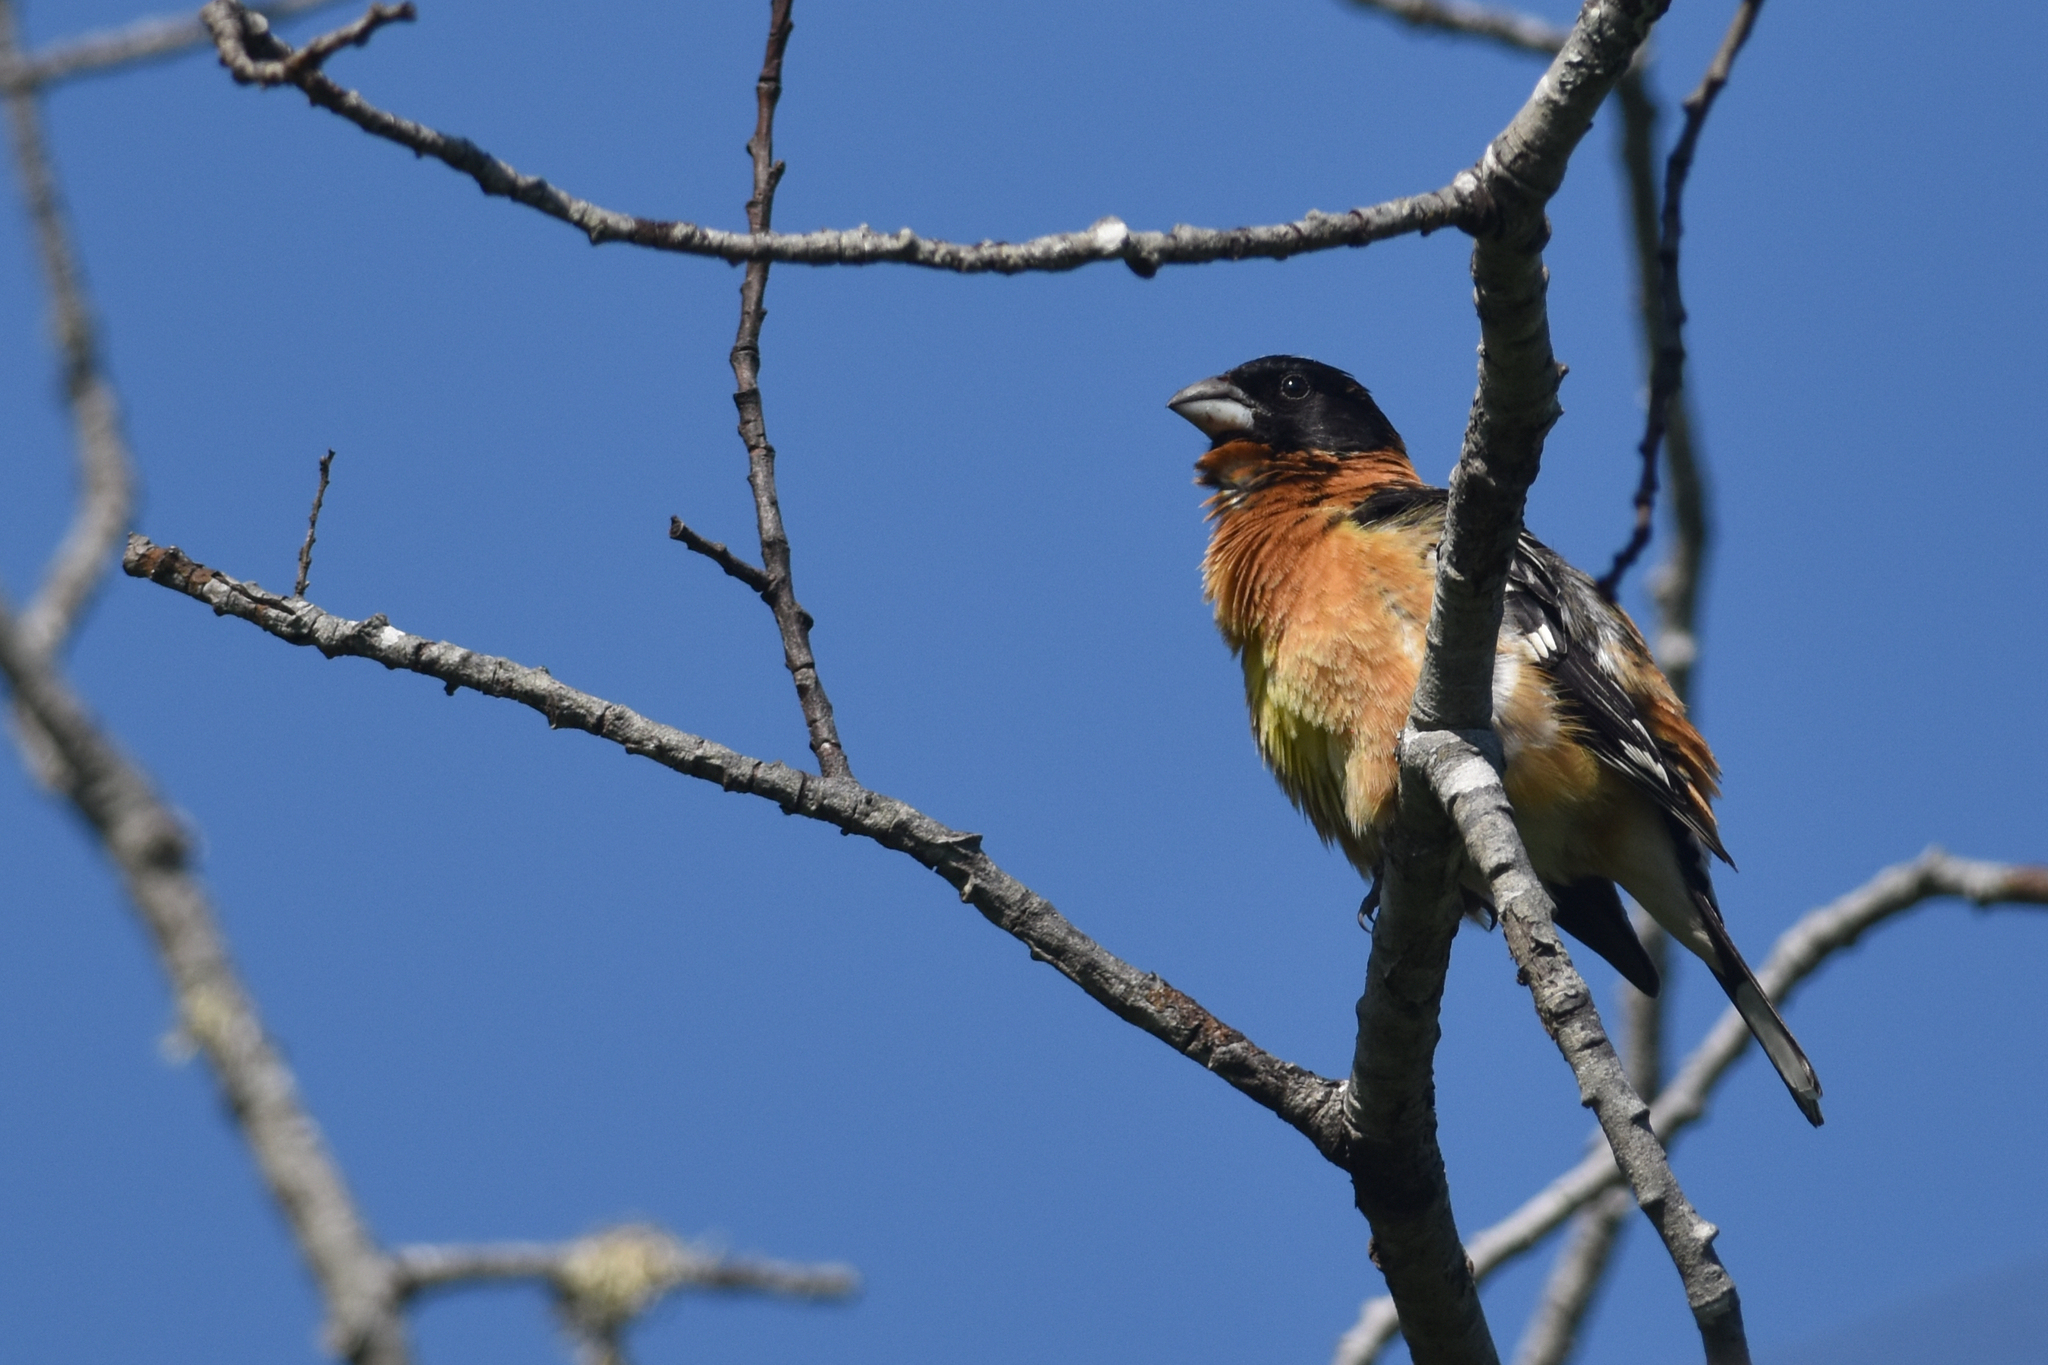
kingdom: Animalia
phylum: Chordata
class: Aves
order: Passeriformes
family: Cardinalidae
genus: Pheucticus
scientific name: Pheucticus melanocephalus
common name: Black-headed grosbeak
